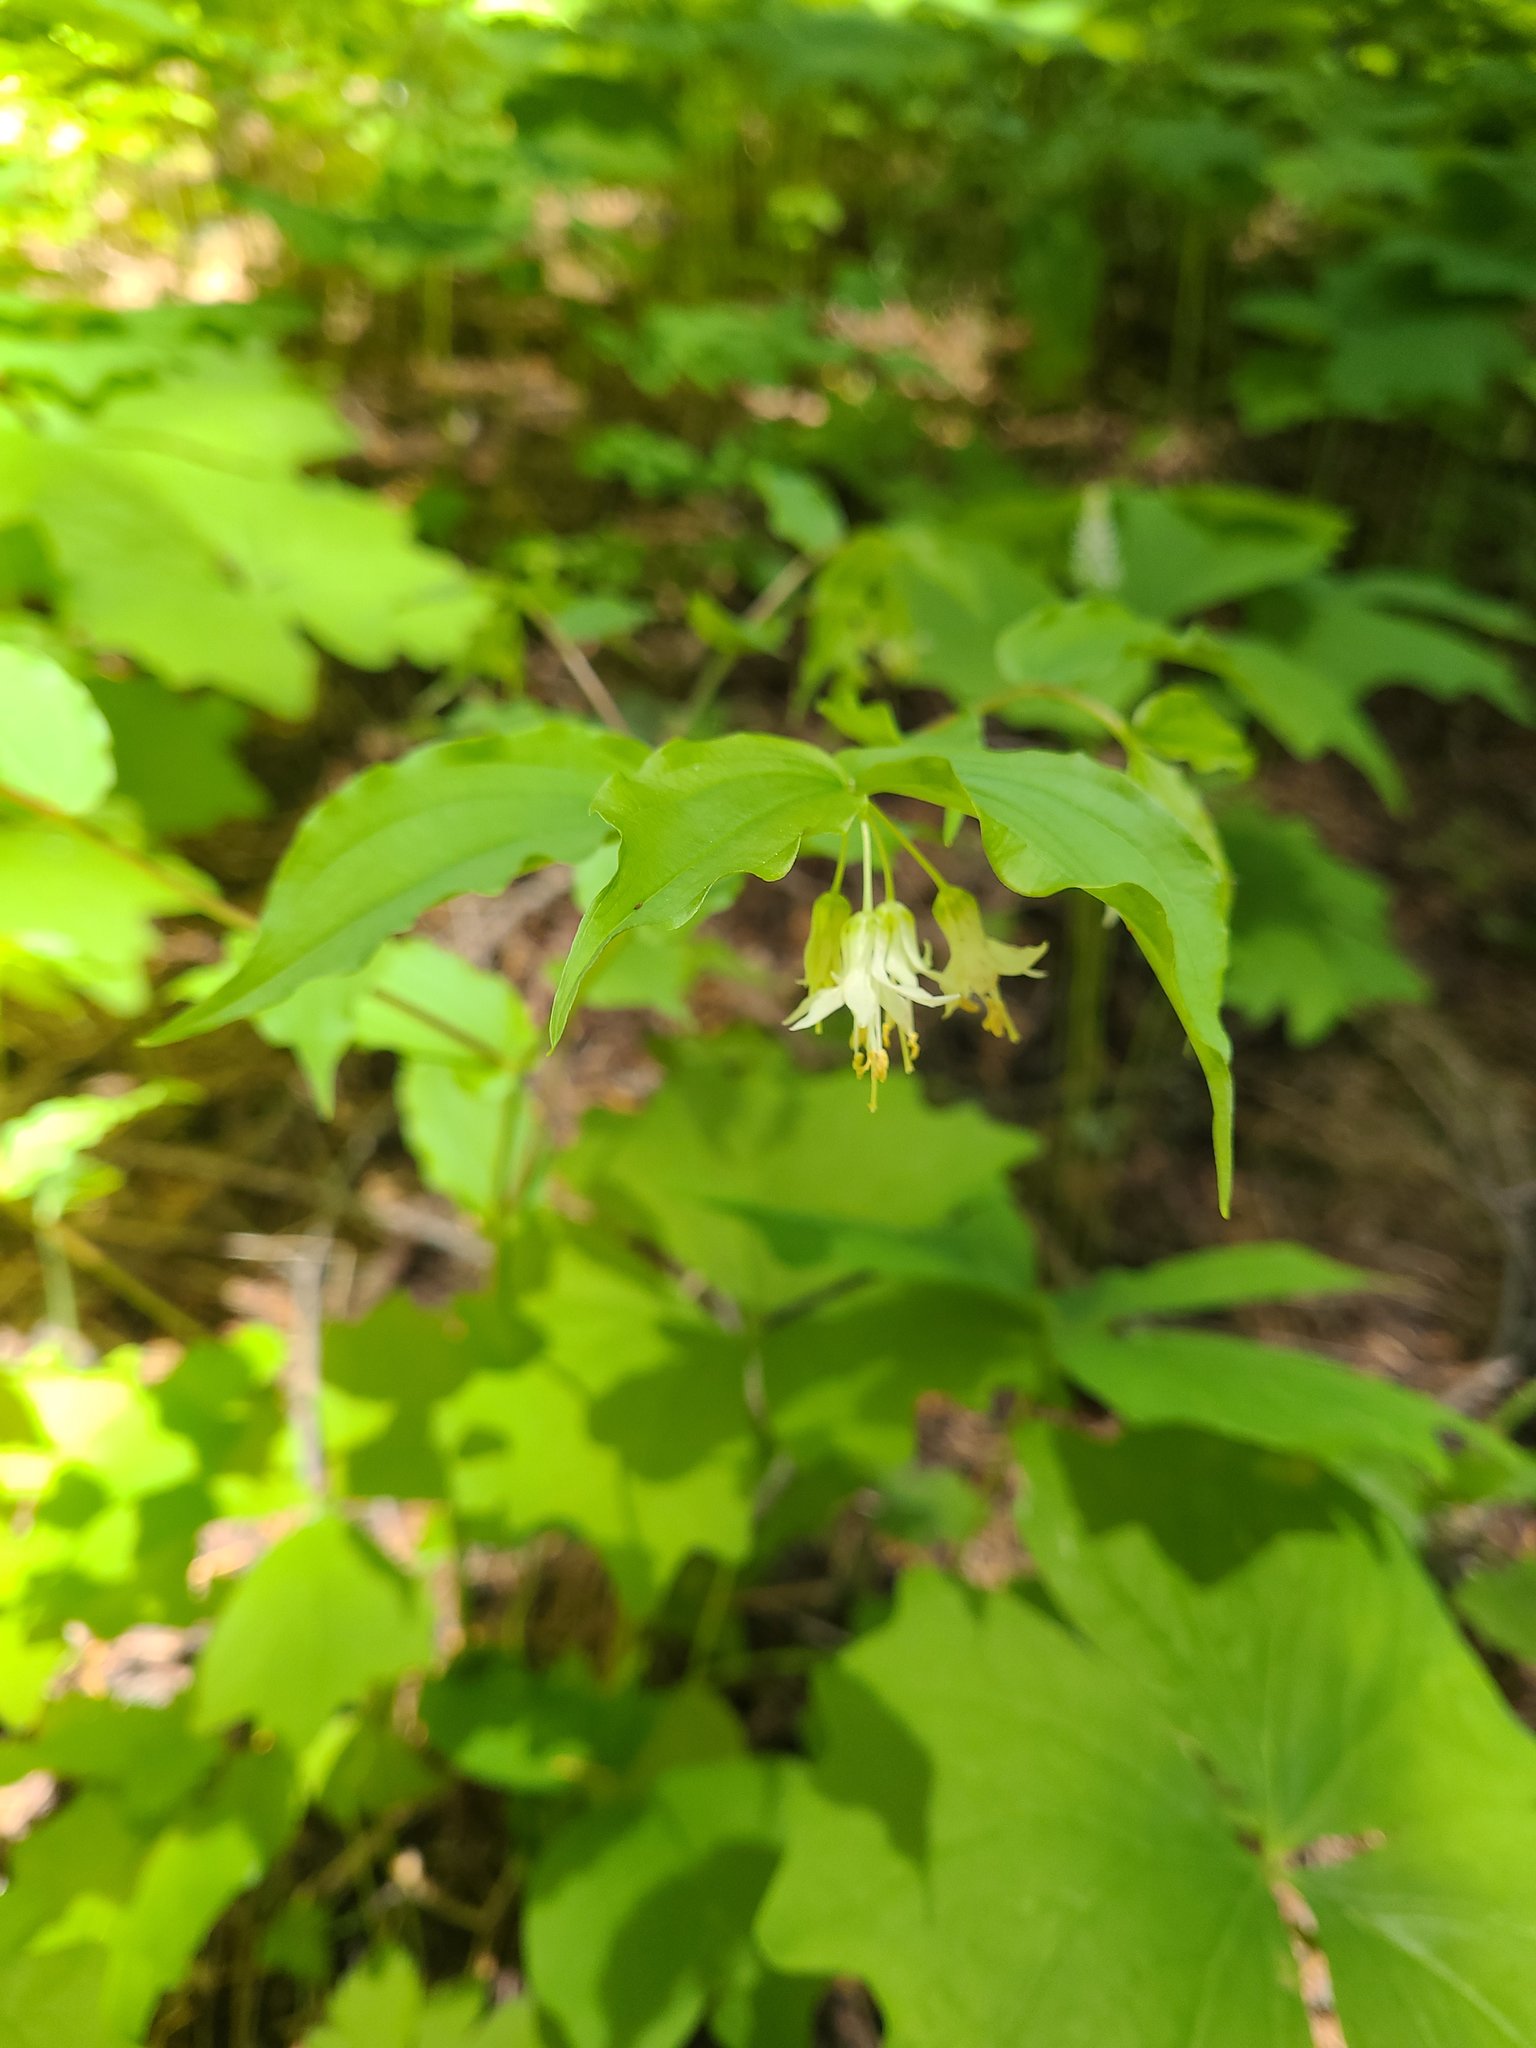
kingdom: Plantae
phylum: Tracheophyta
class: Liliopsida
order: Liliales
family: Liliaceae
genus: Prosartes
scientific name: Prosartes hookeri
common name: Fairy-bells
